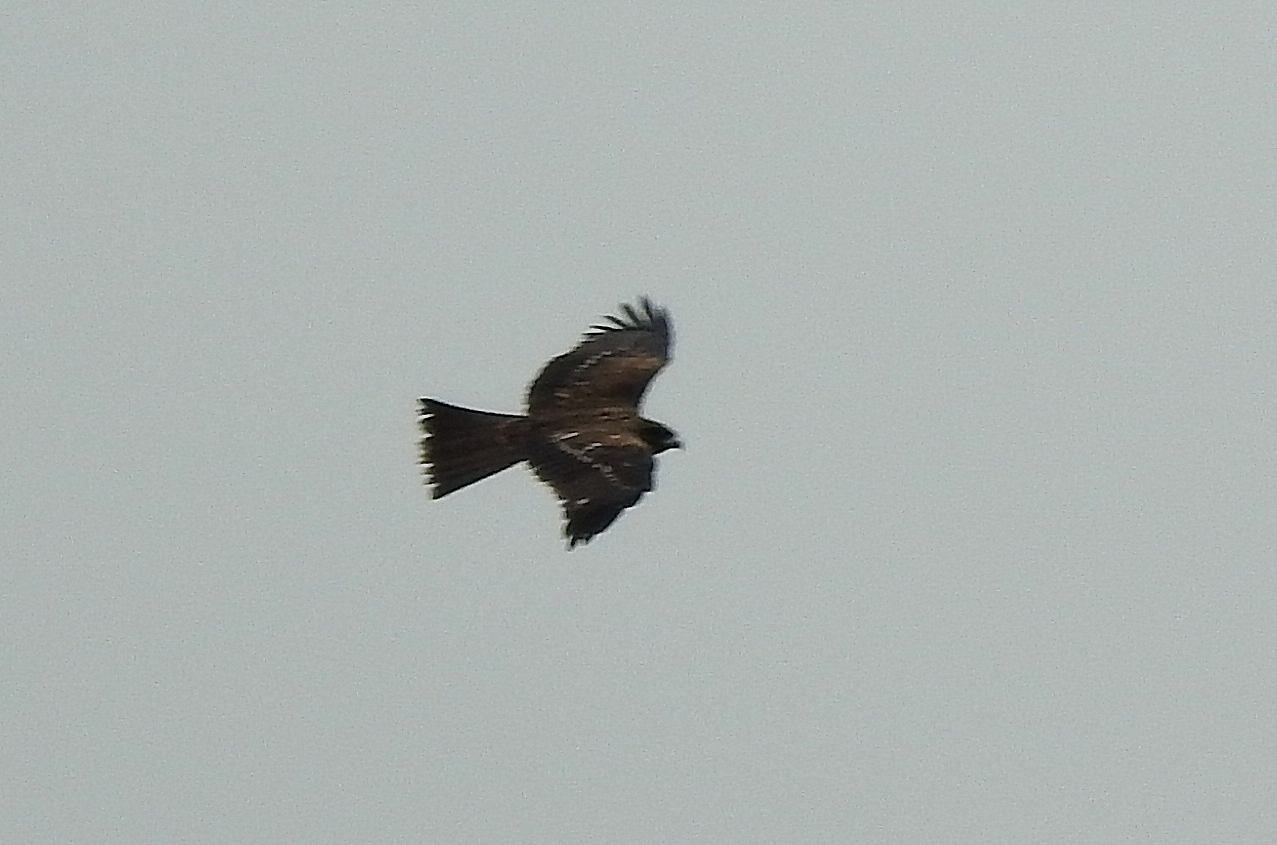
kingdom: Animalia
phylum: Chordata
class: Aves
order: Accipitriformes
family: Accipitridae
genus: Milvus
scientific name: Milvus migrans
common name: Black kite
